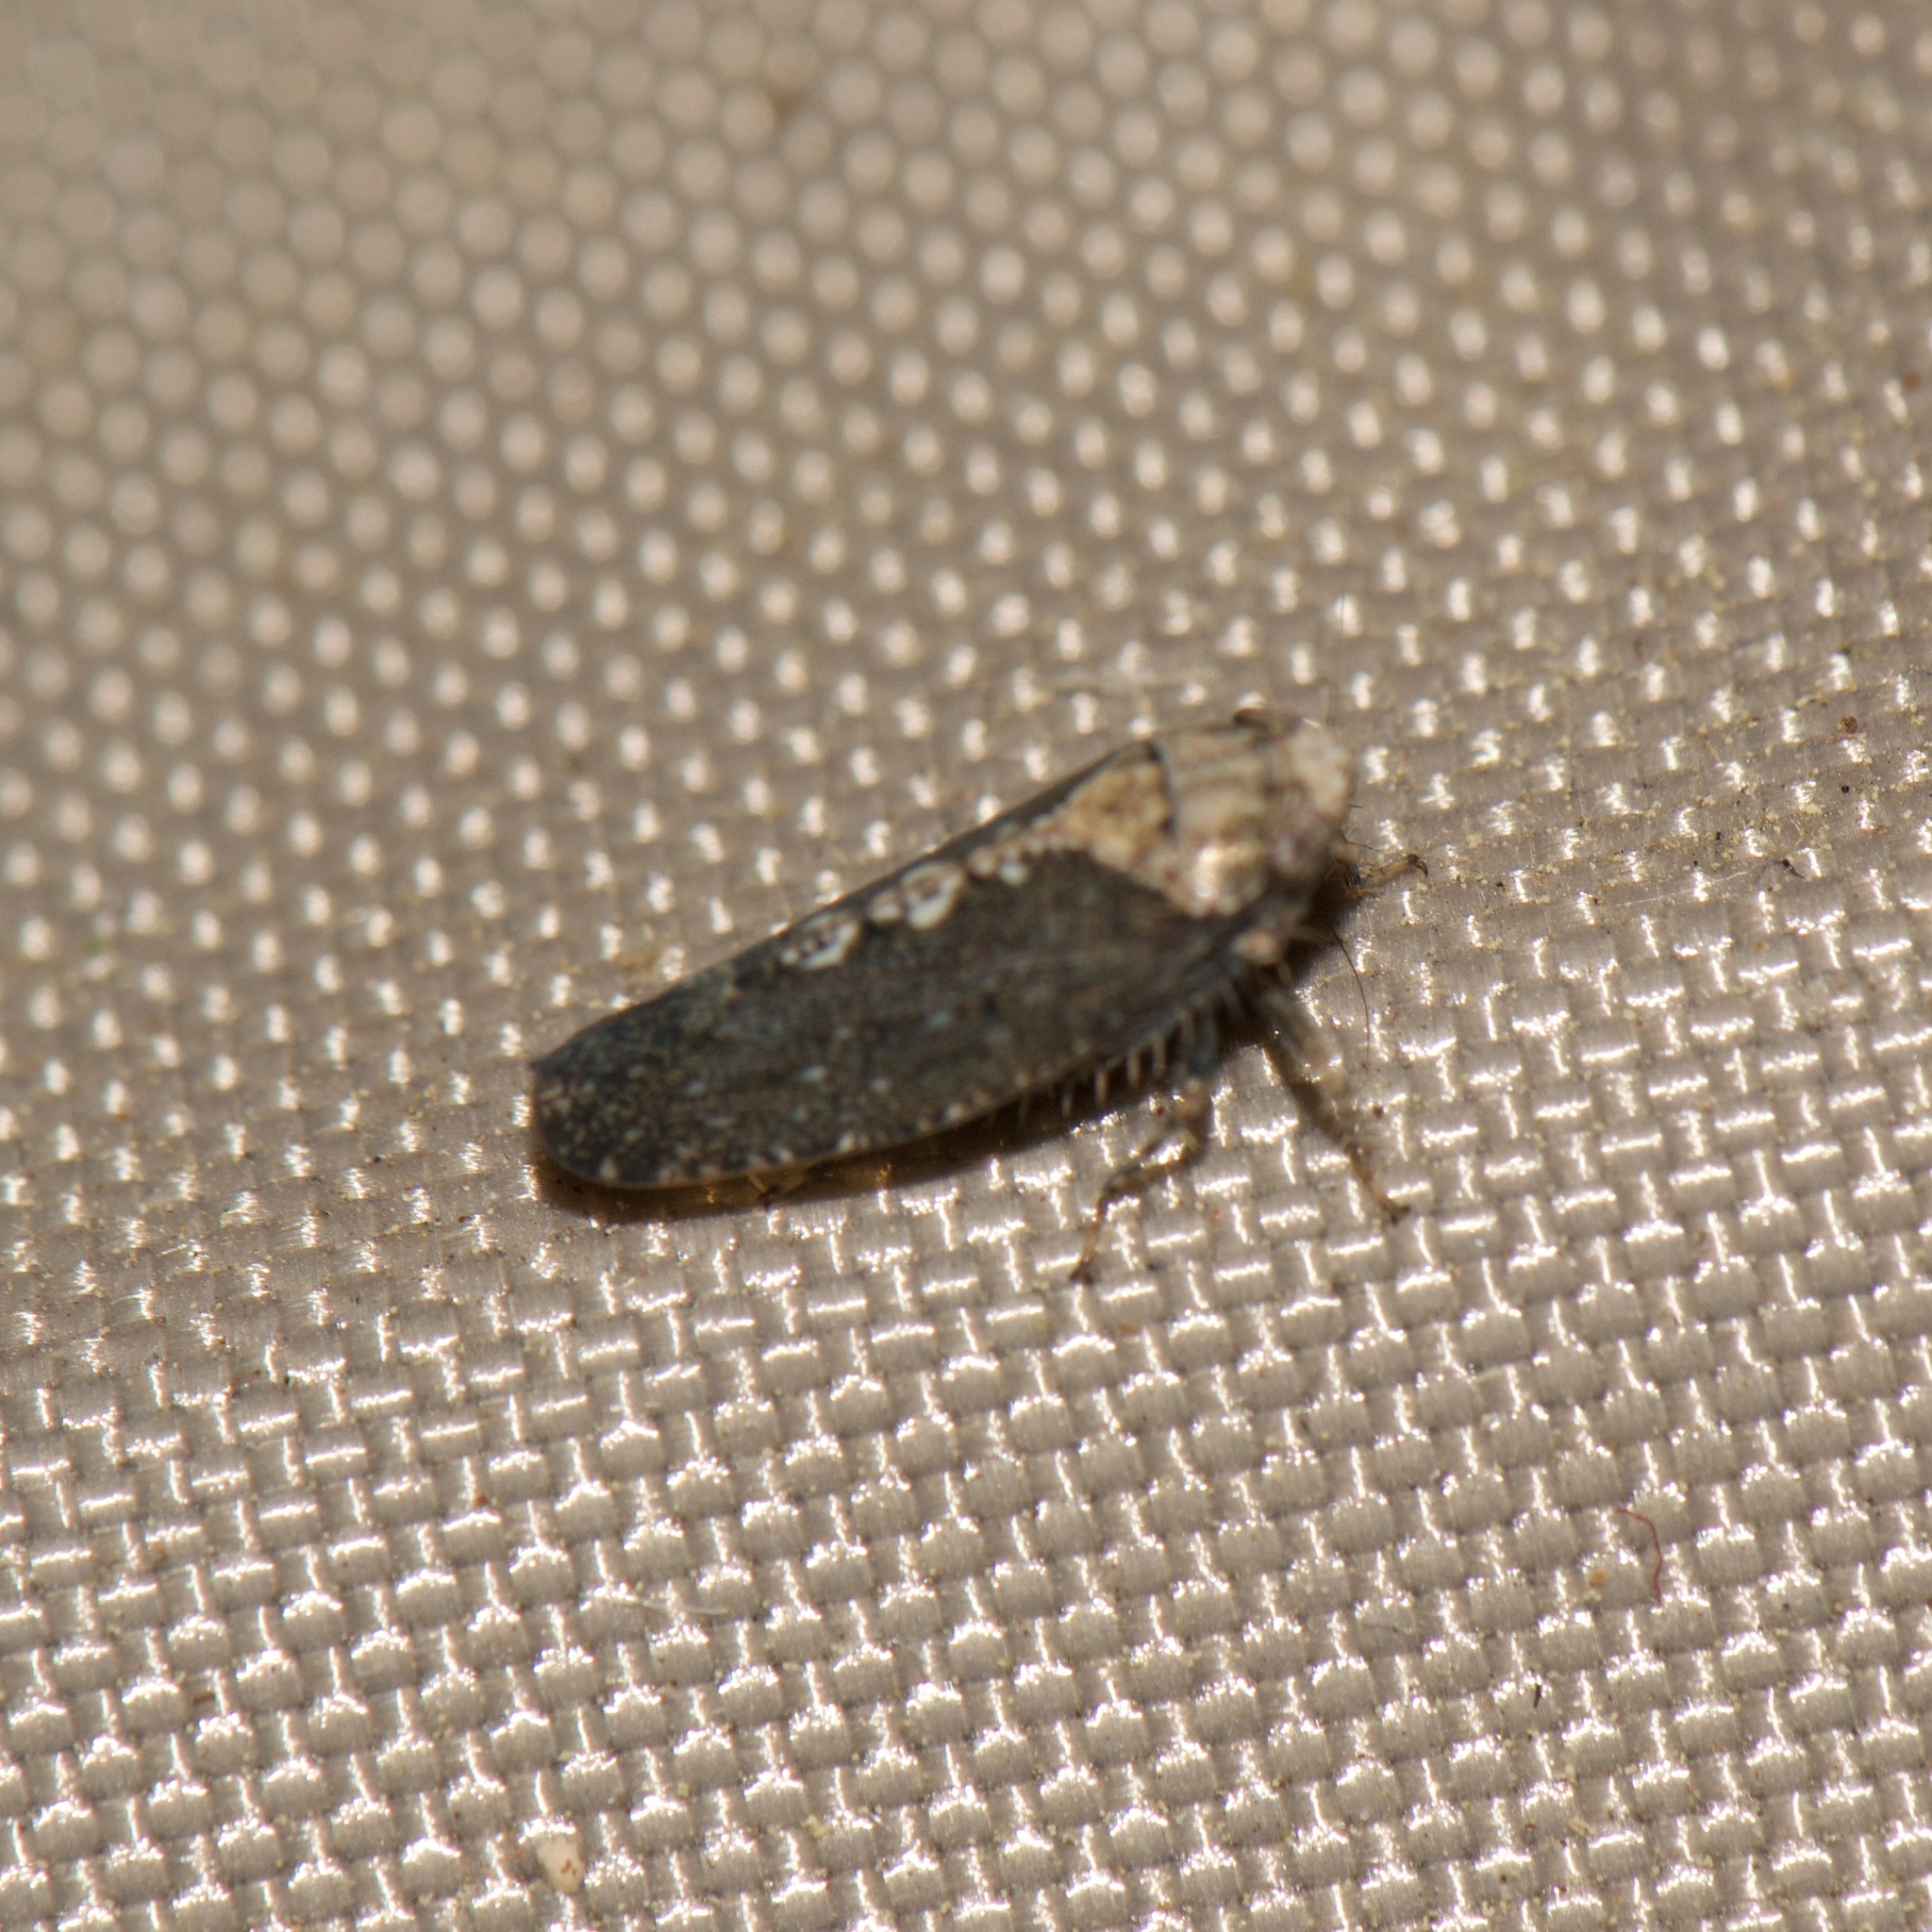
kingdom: Animalia
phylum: Arthropoda
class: Insecta
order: Hemiptera
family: Cicadellidae
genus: Excultanus
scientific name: Excultanus excultus
